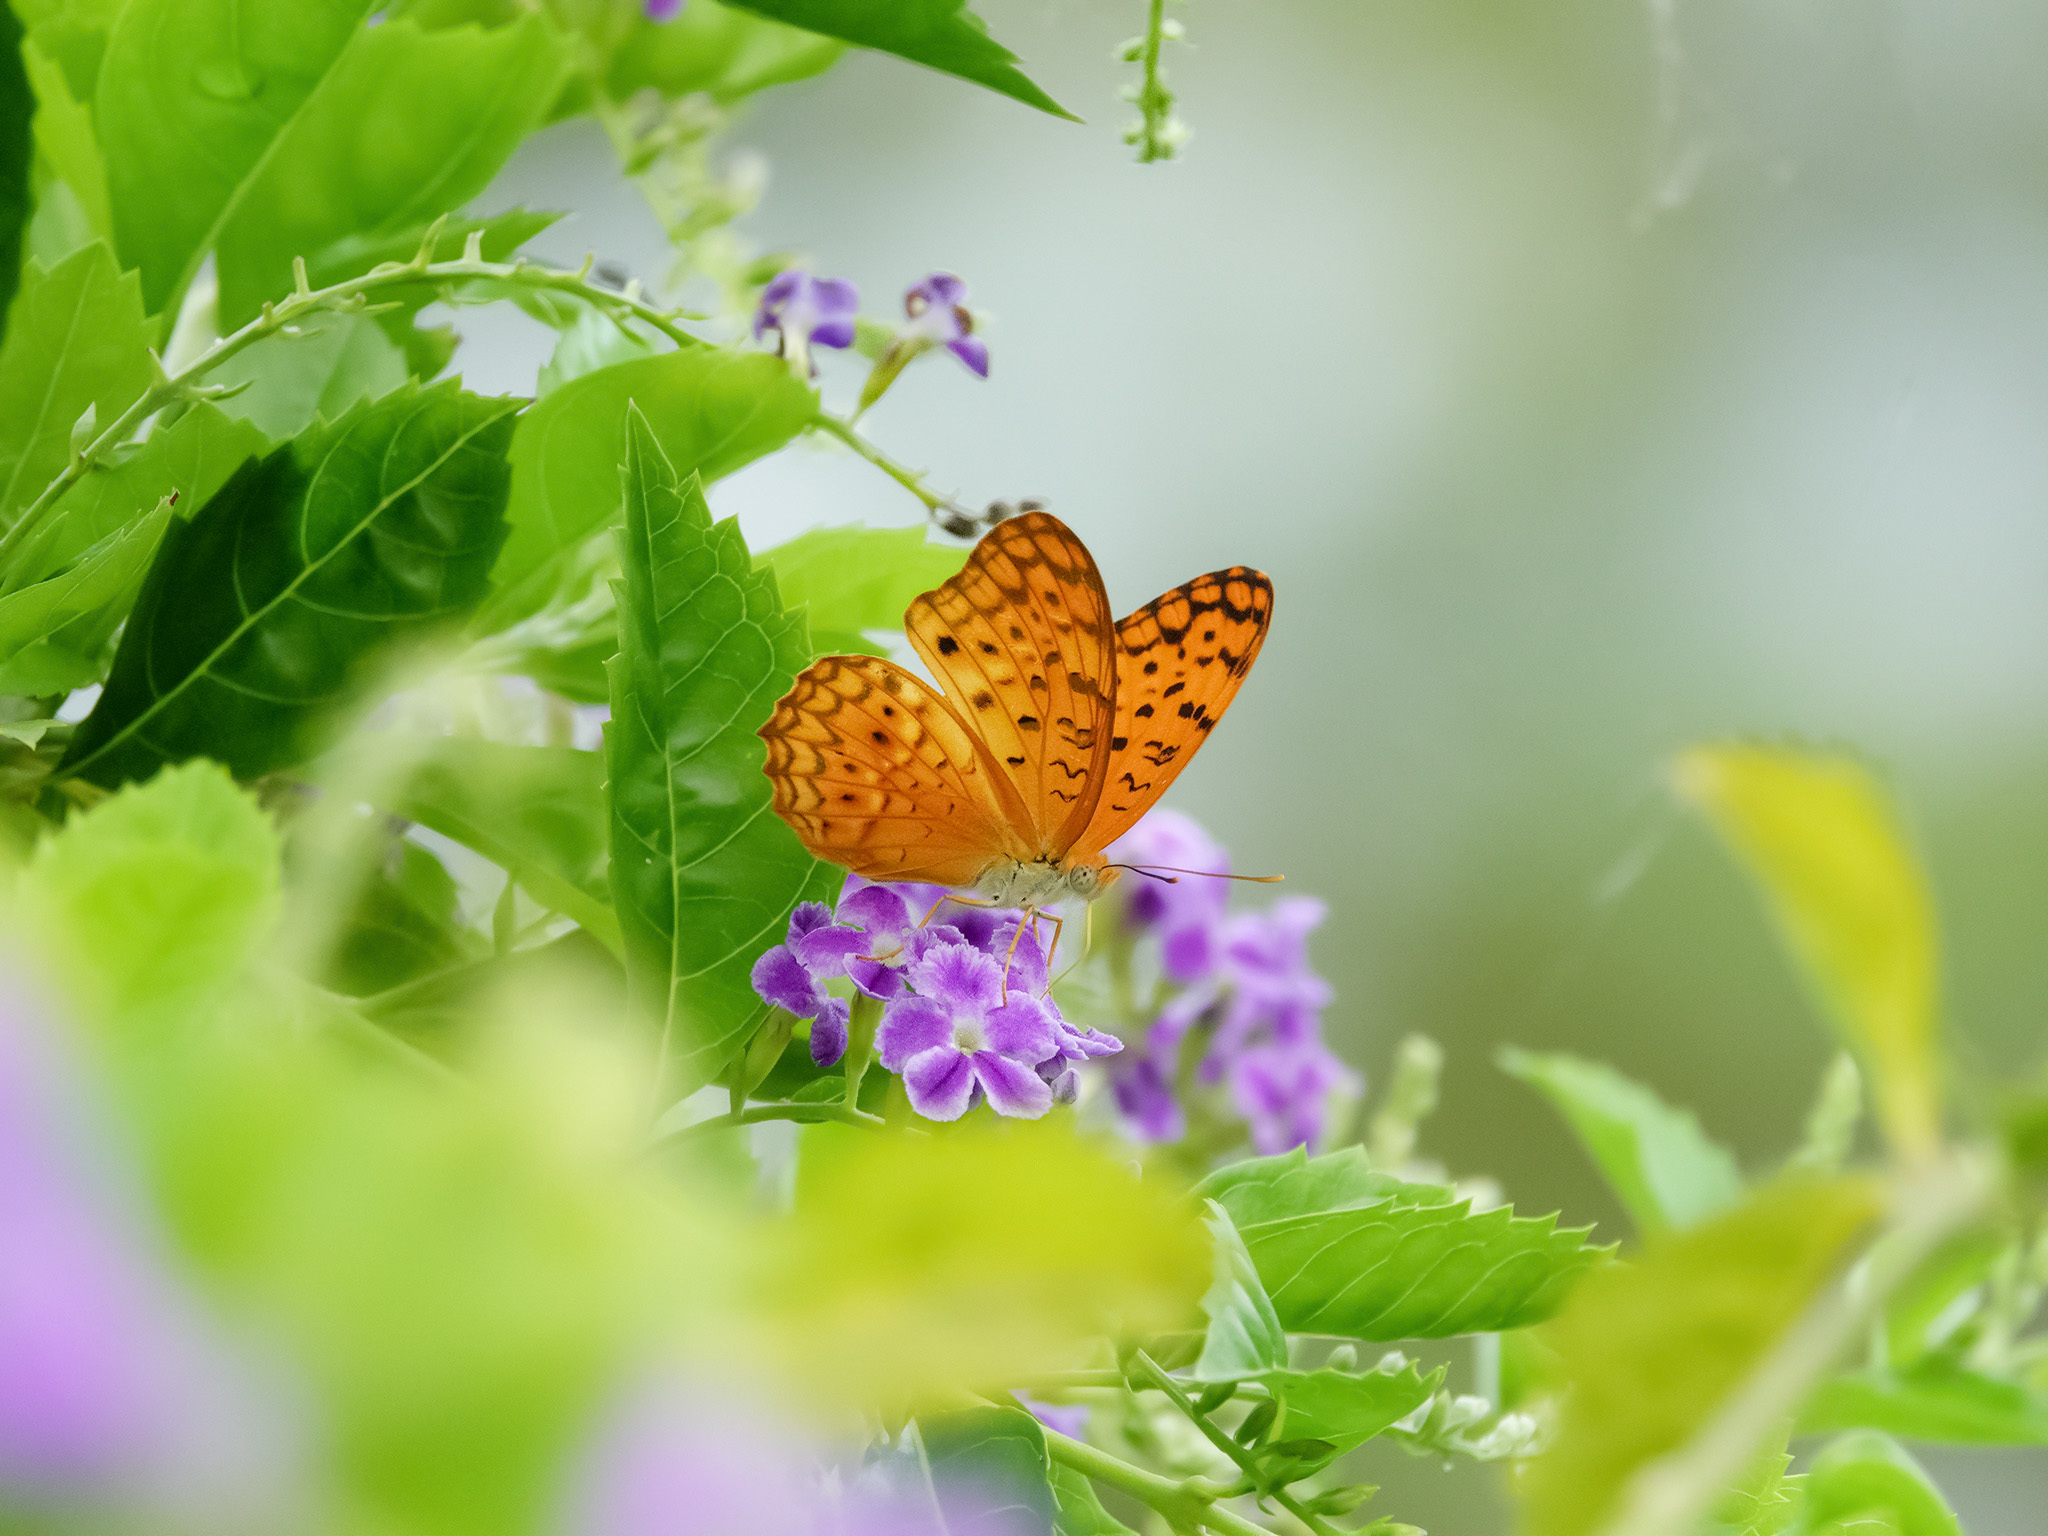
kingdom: Animalia
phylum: Arthropoda
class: Insecta
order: Lepidoptera
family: Nymphalidae
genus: Phalanta
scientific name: Phalanta phalantha
